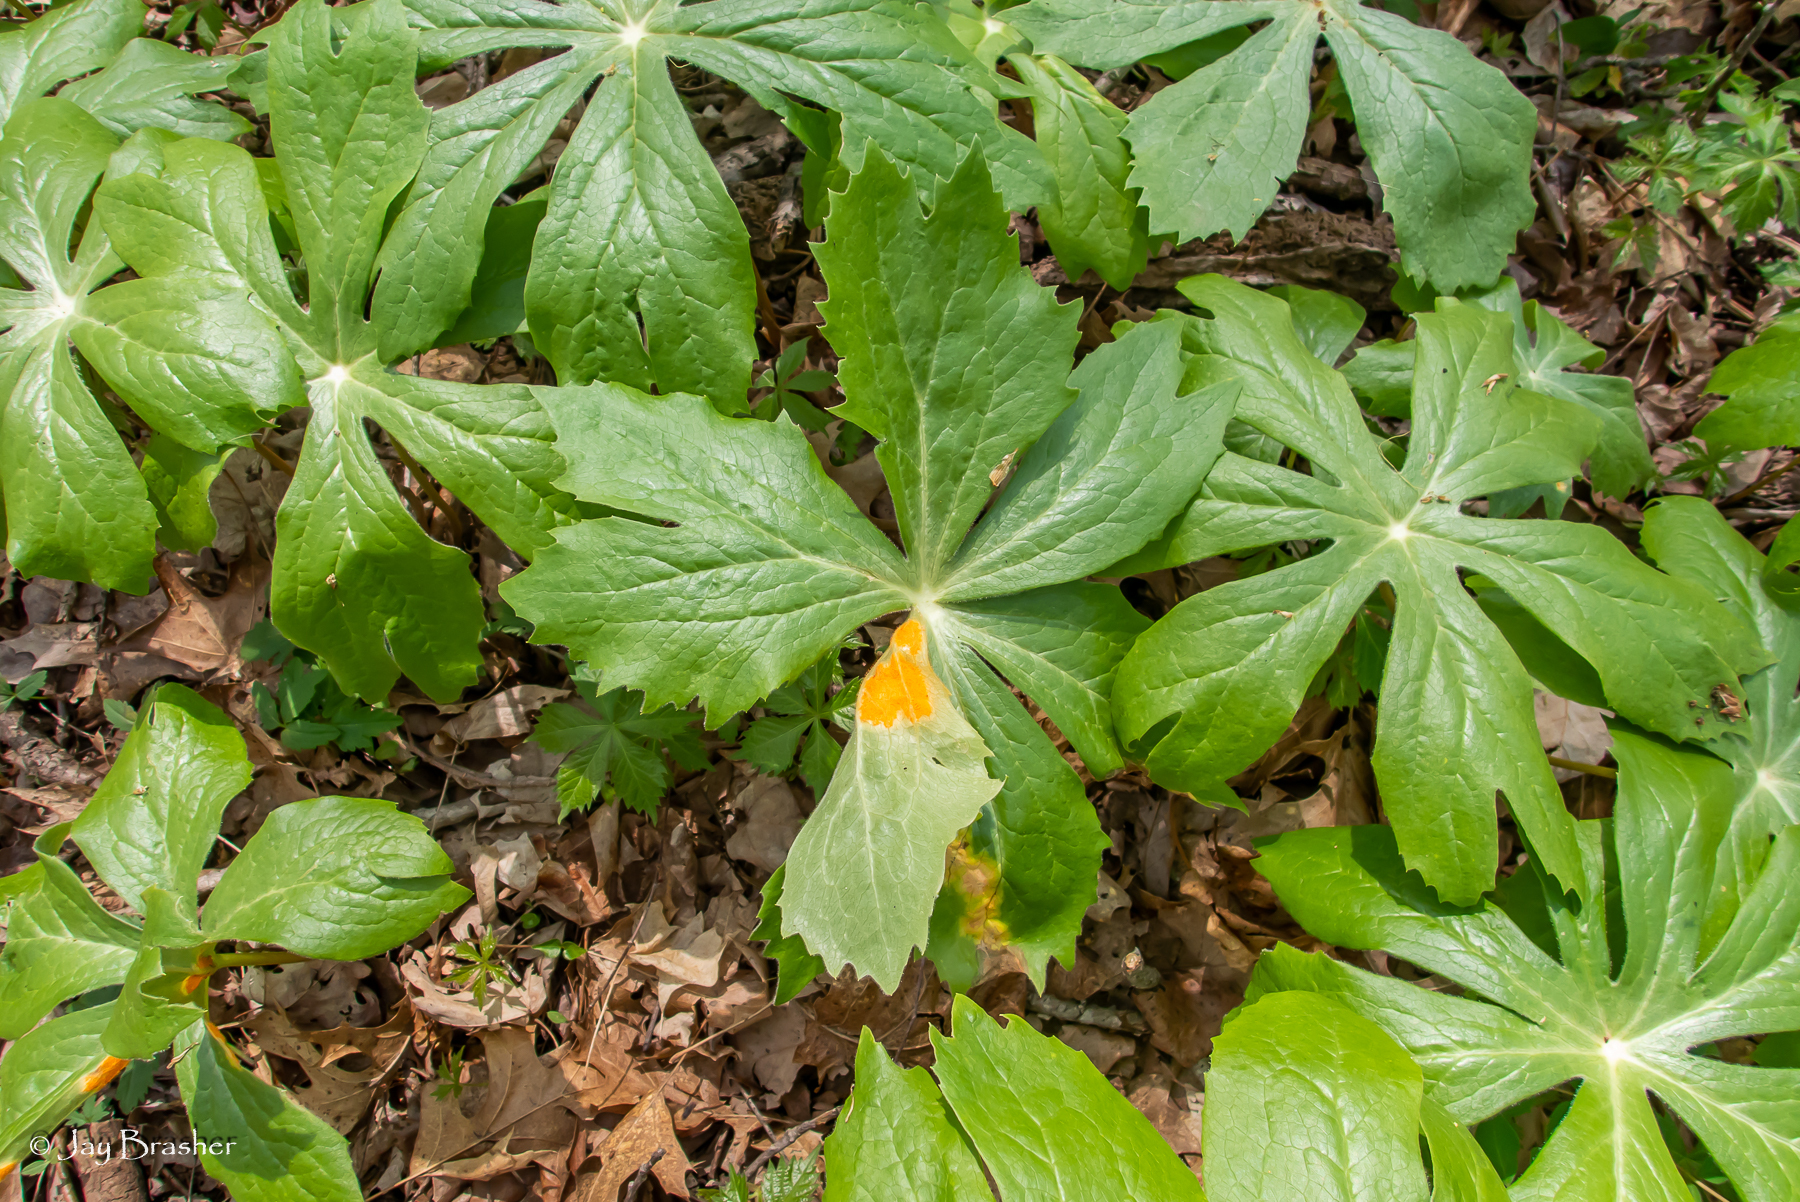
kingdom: Plantae
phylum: Tracheophyta
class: Magnoliopsida
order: Ranunculales
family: Berberidaceae
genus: Podophyllum
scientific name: Podophyllum peltatum
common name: Wild mandrake
